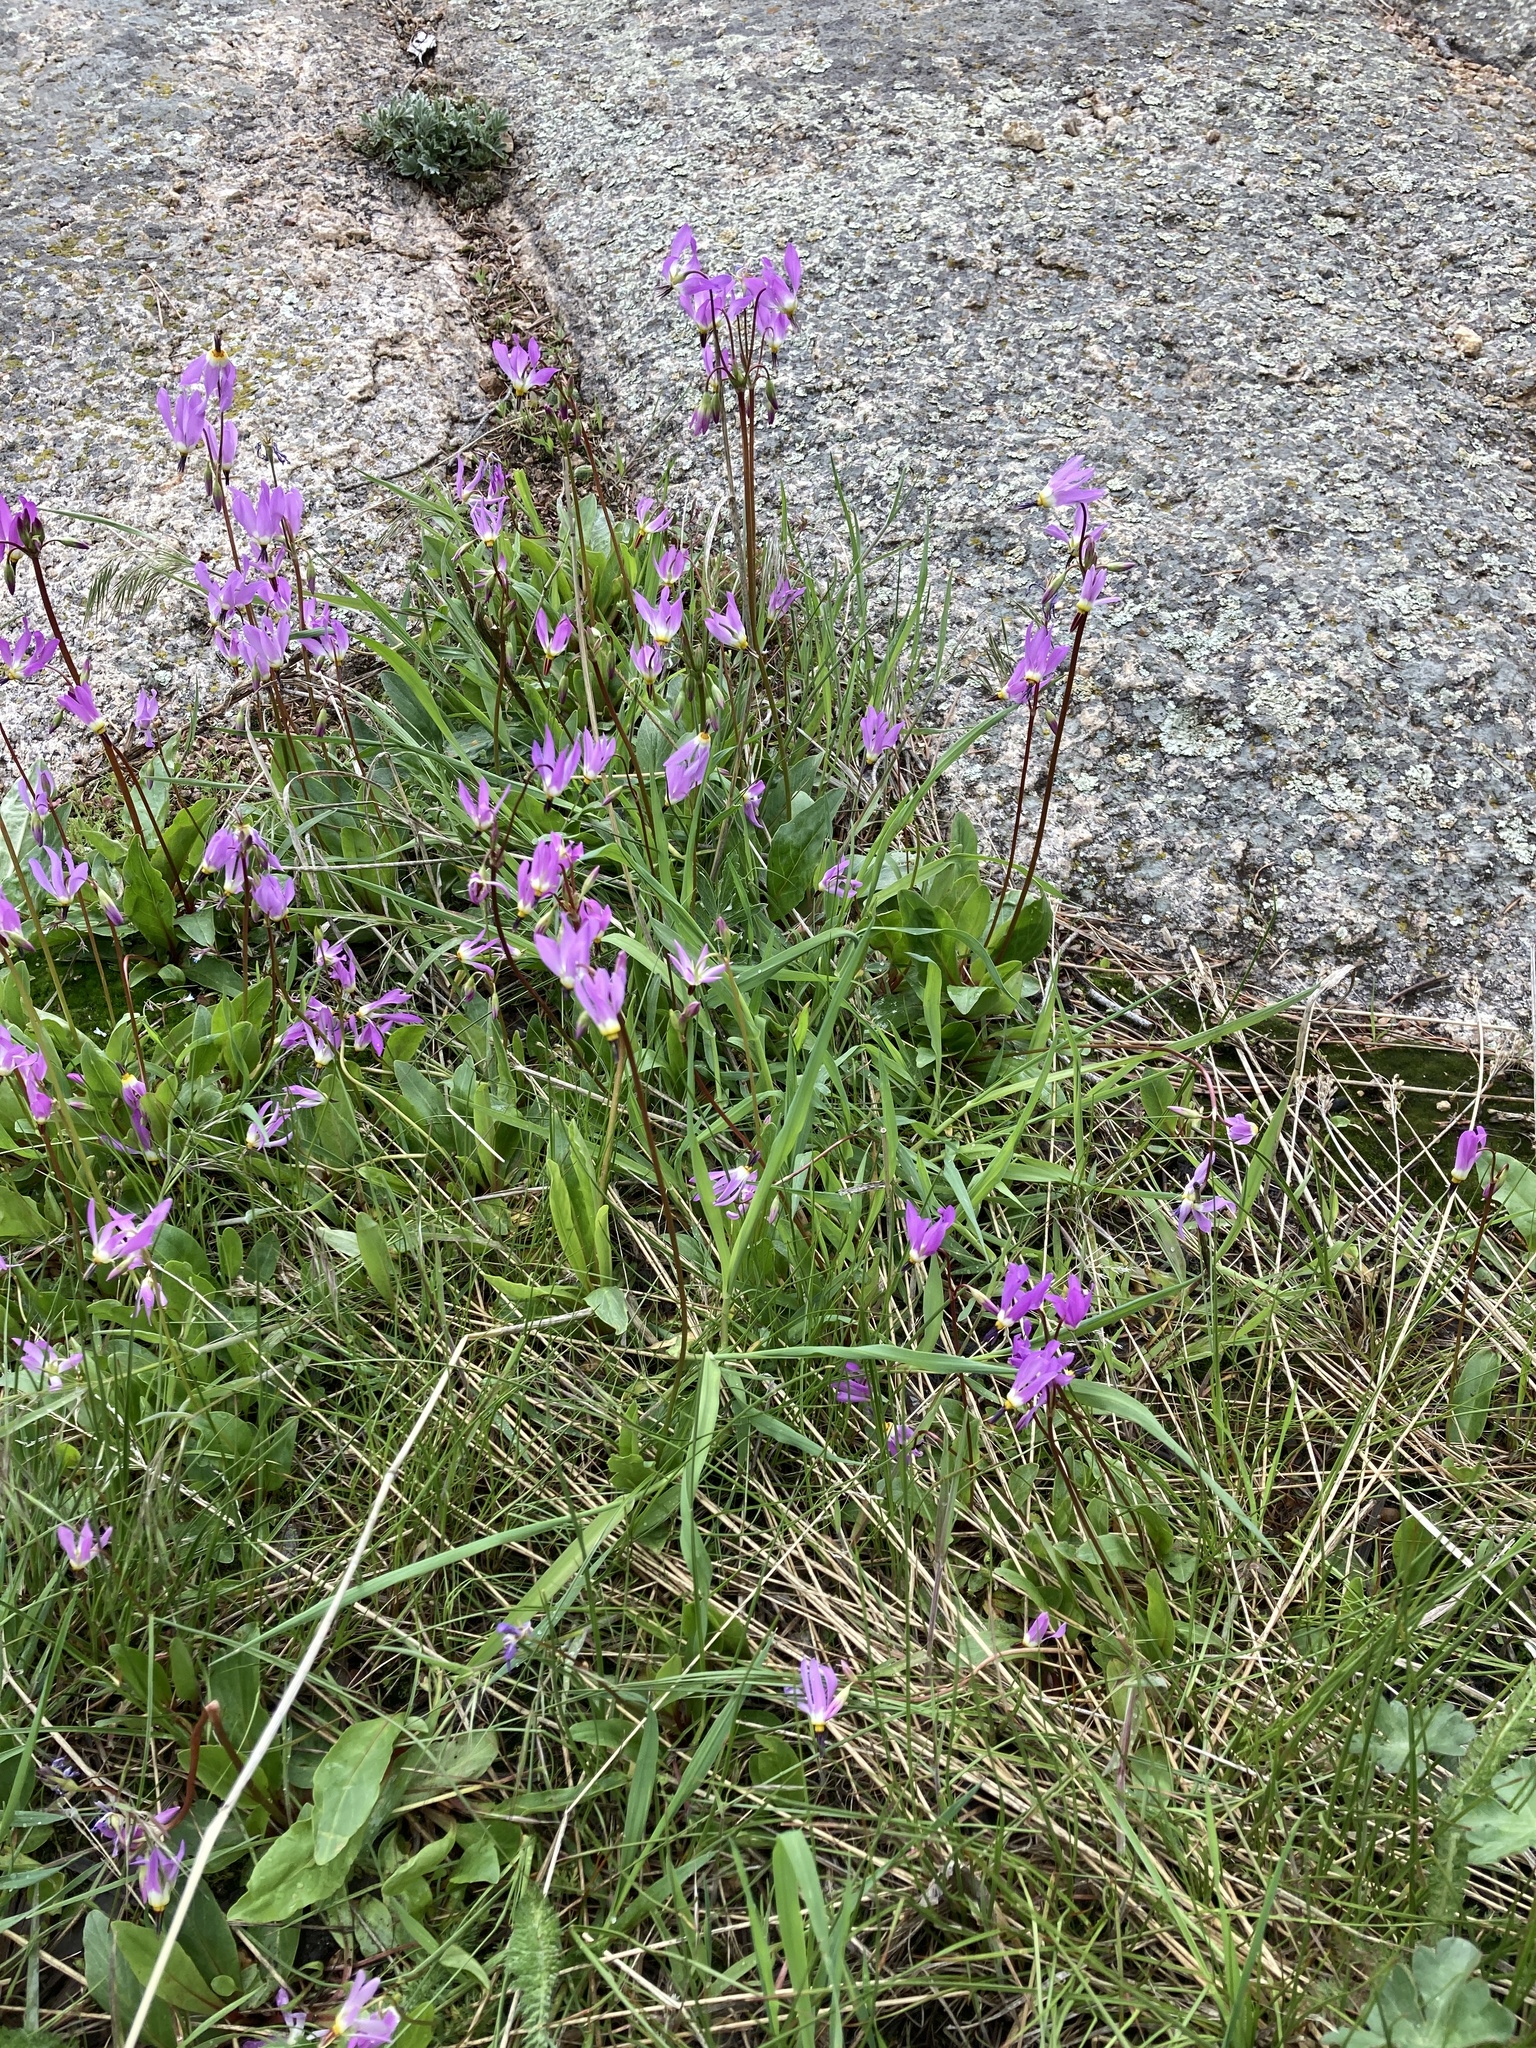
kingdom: Plantae
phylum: Tracheophyta
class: Magnoliopsida
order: Ericales
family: Primulaceae
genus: Dodecatheon
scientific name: Dodecatheon pulchellum
